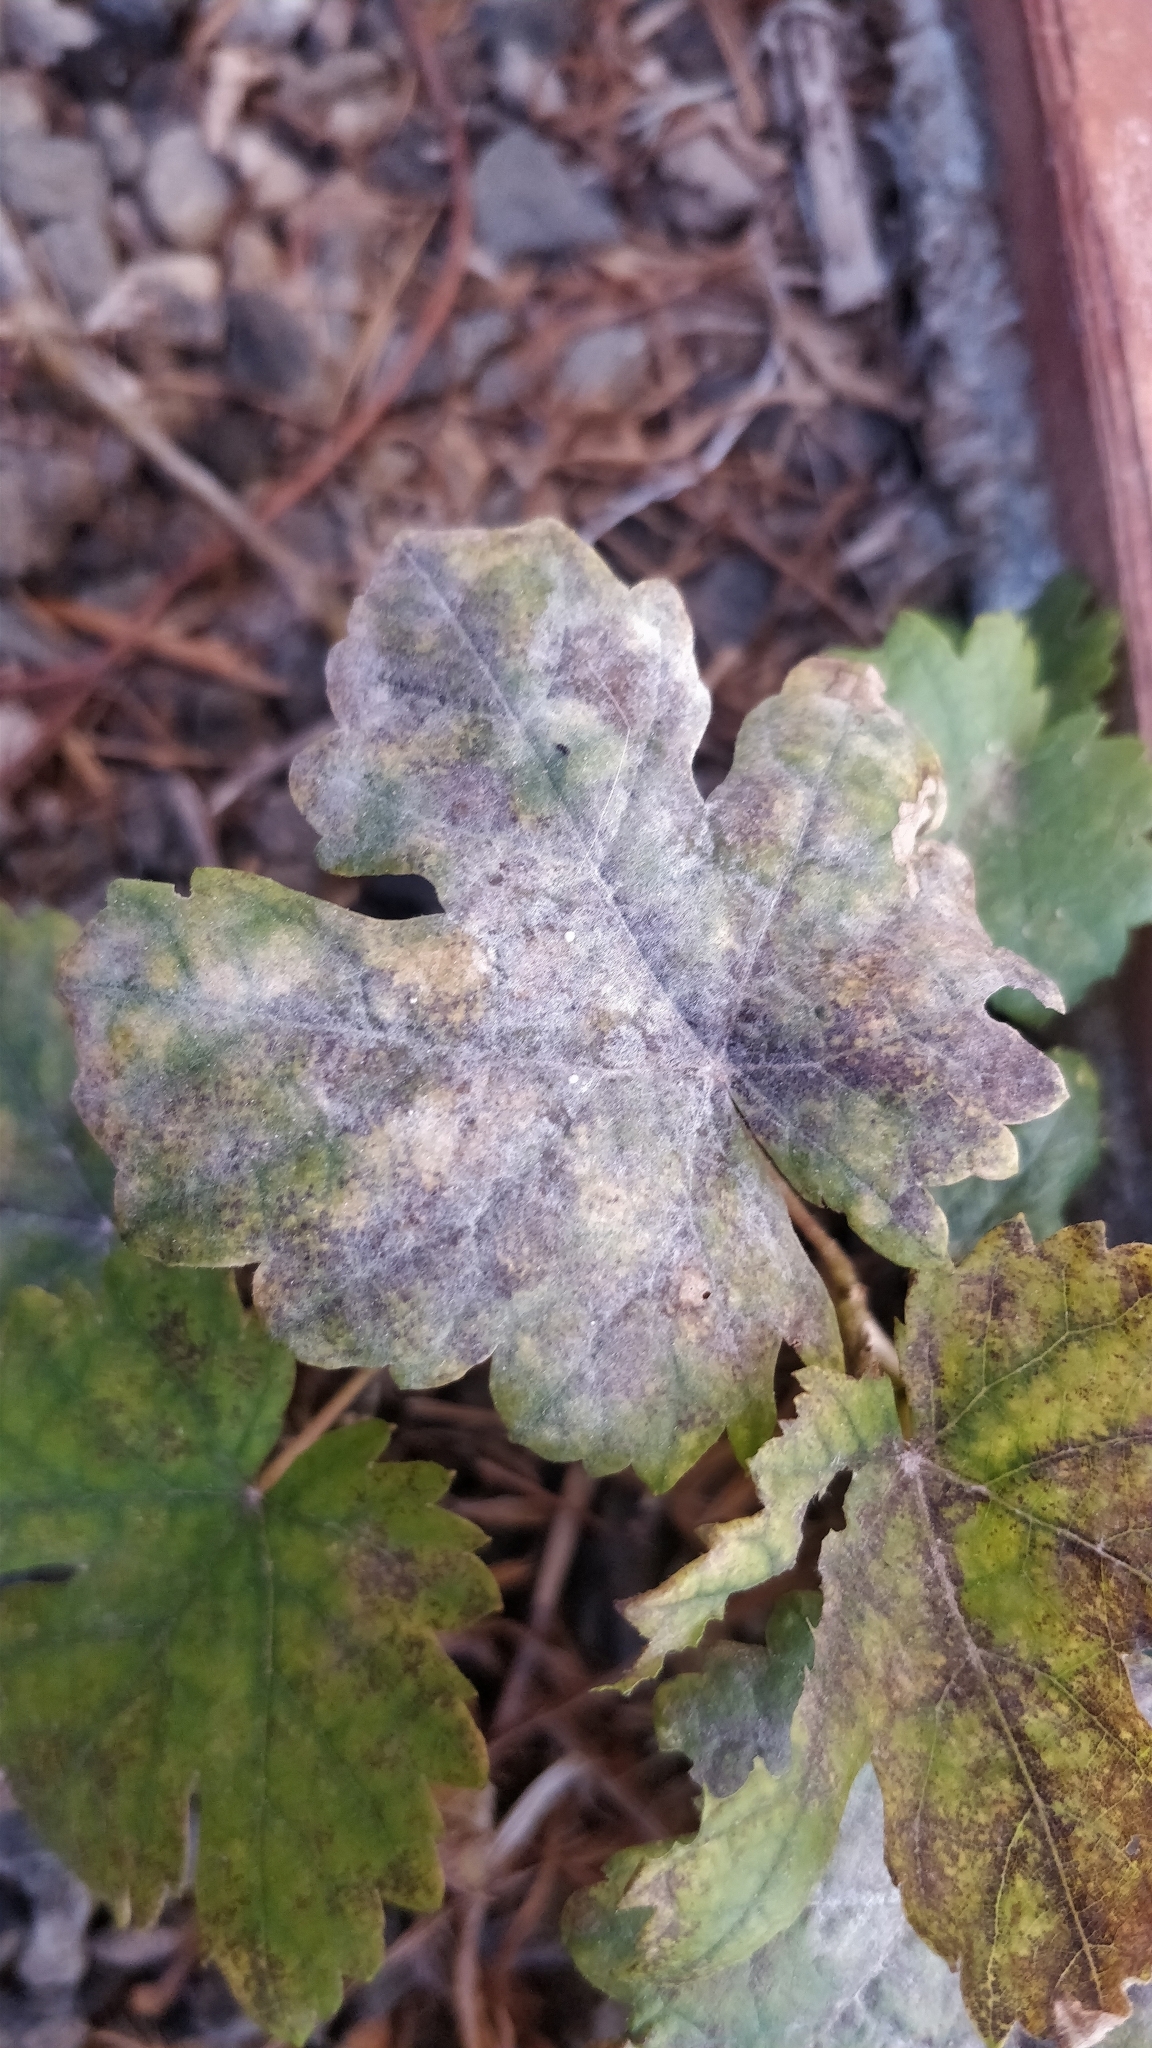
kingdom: Fungi
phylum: Ascomycota
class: Leotiomycetes
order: Helotiales
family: Erysiphaceae
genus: Erysiphe
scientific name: Erysiphe necator
